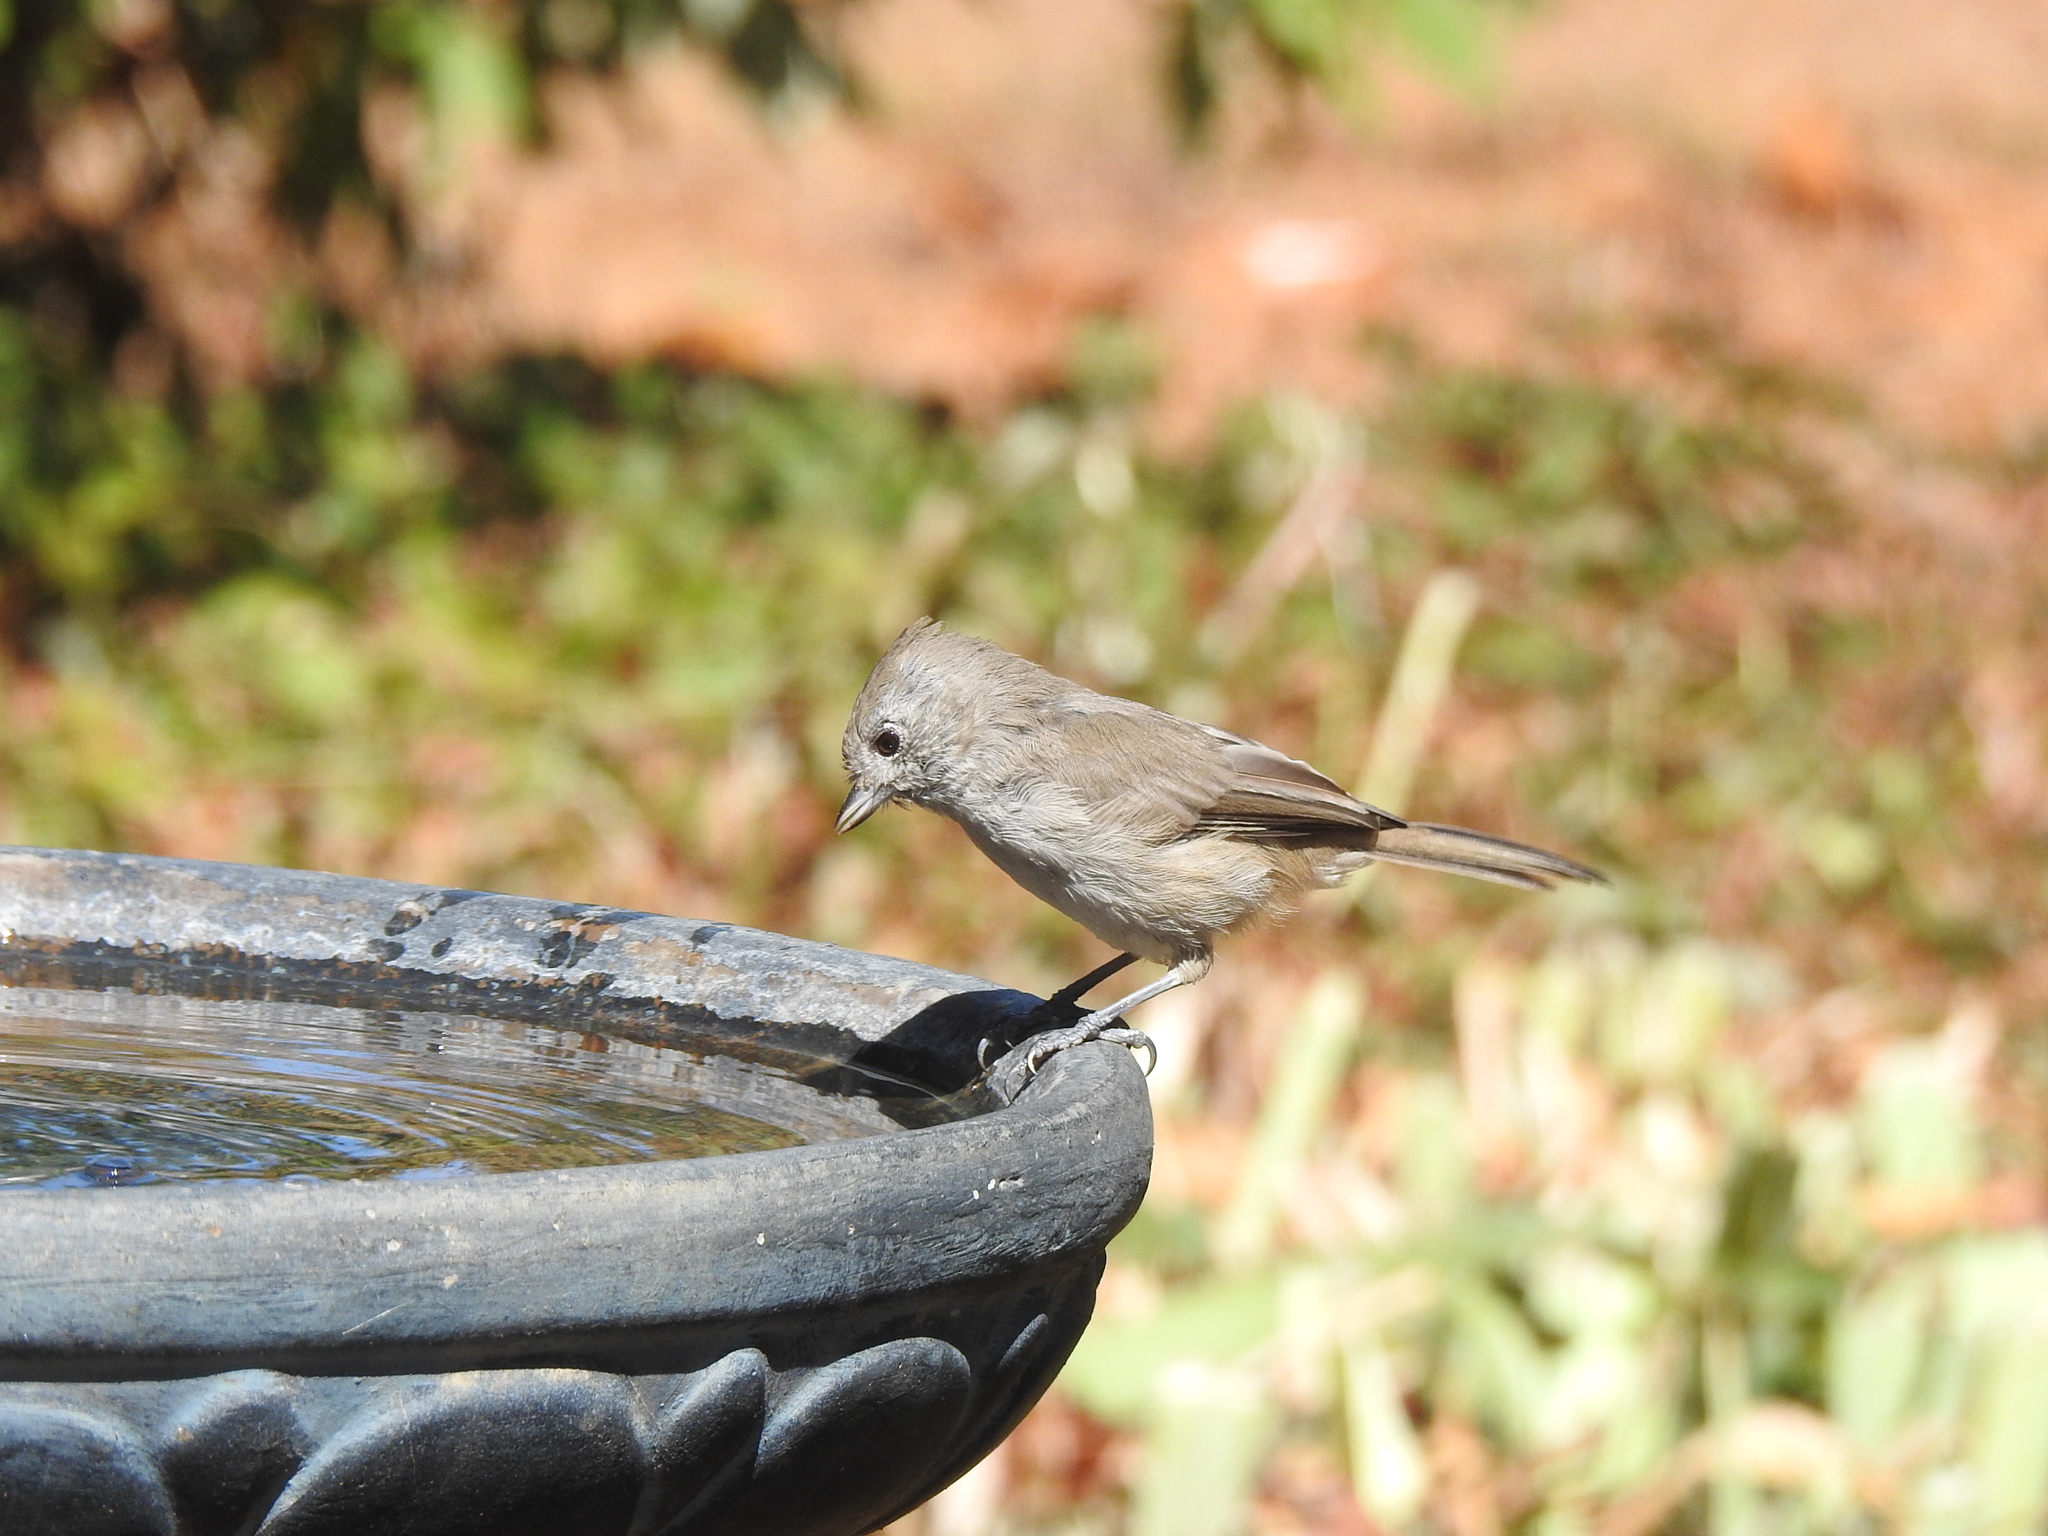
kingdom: Animalia
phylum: Chordata
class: Aves
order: Passeriformes
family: Paridae
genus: Baeolophus
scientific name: Baeolophus inornatus
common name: Oak titmouse
